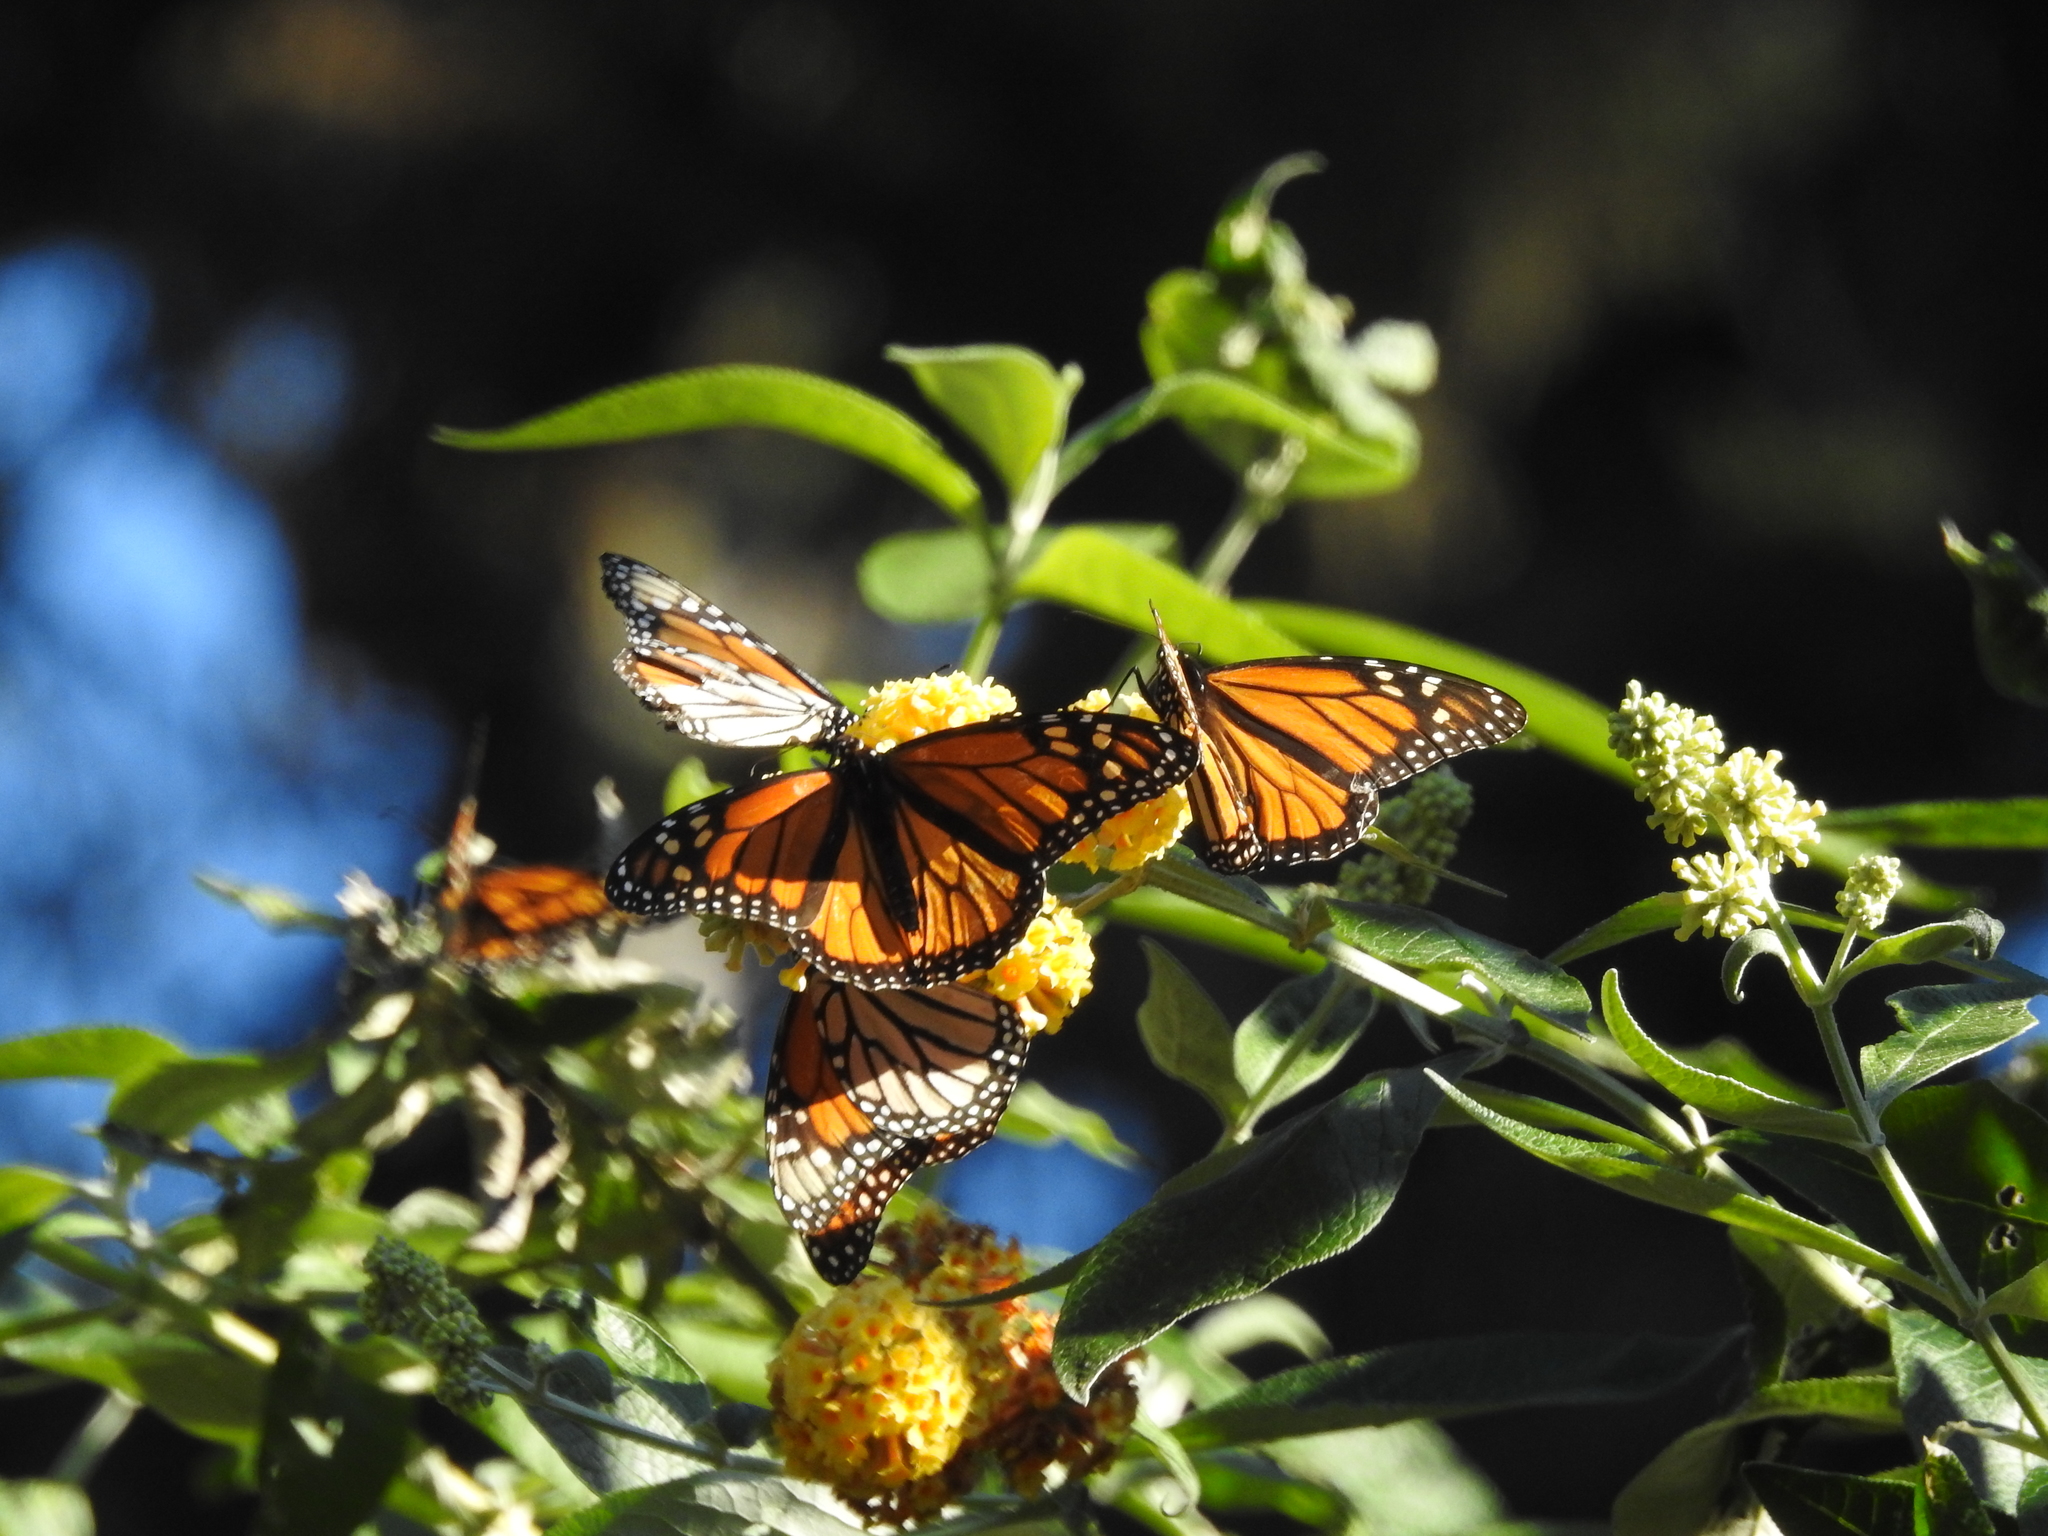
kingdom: Animalia
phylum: Arthropoda
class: Insecta
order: Lepidoptera
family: Nymphalidae
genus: Danaus
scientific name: Danaus plexippus
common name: Monarch
